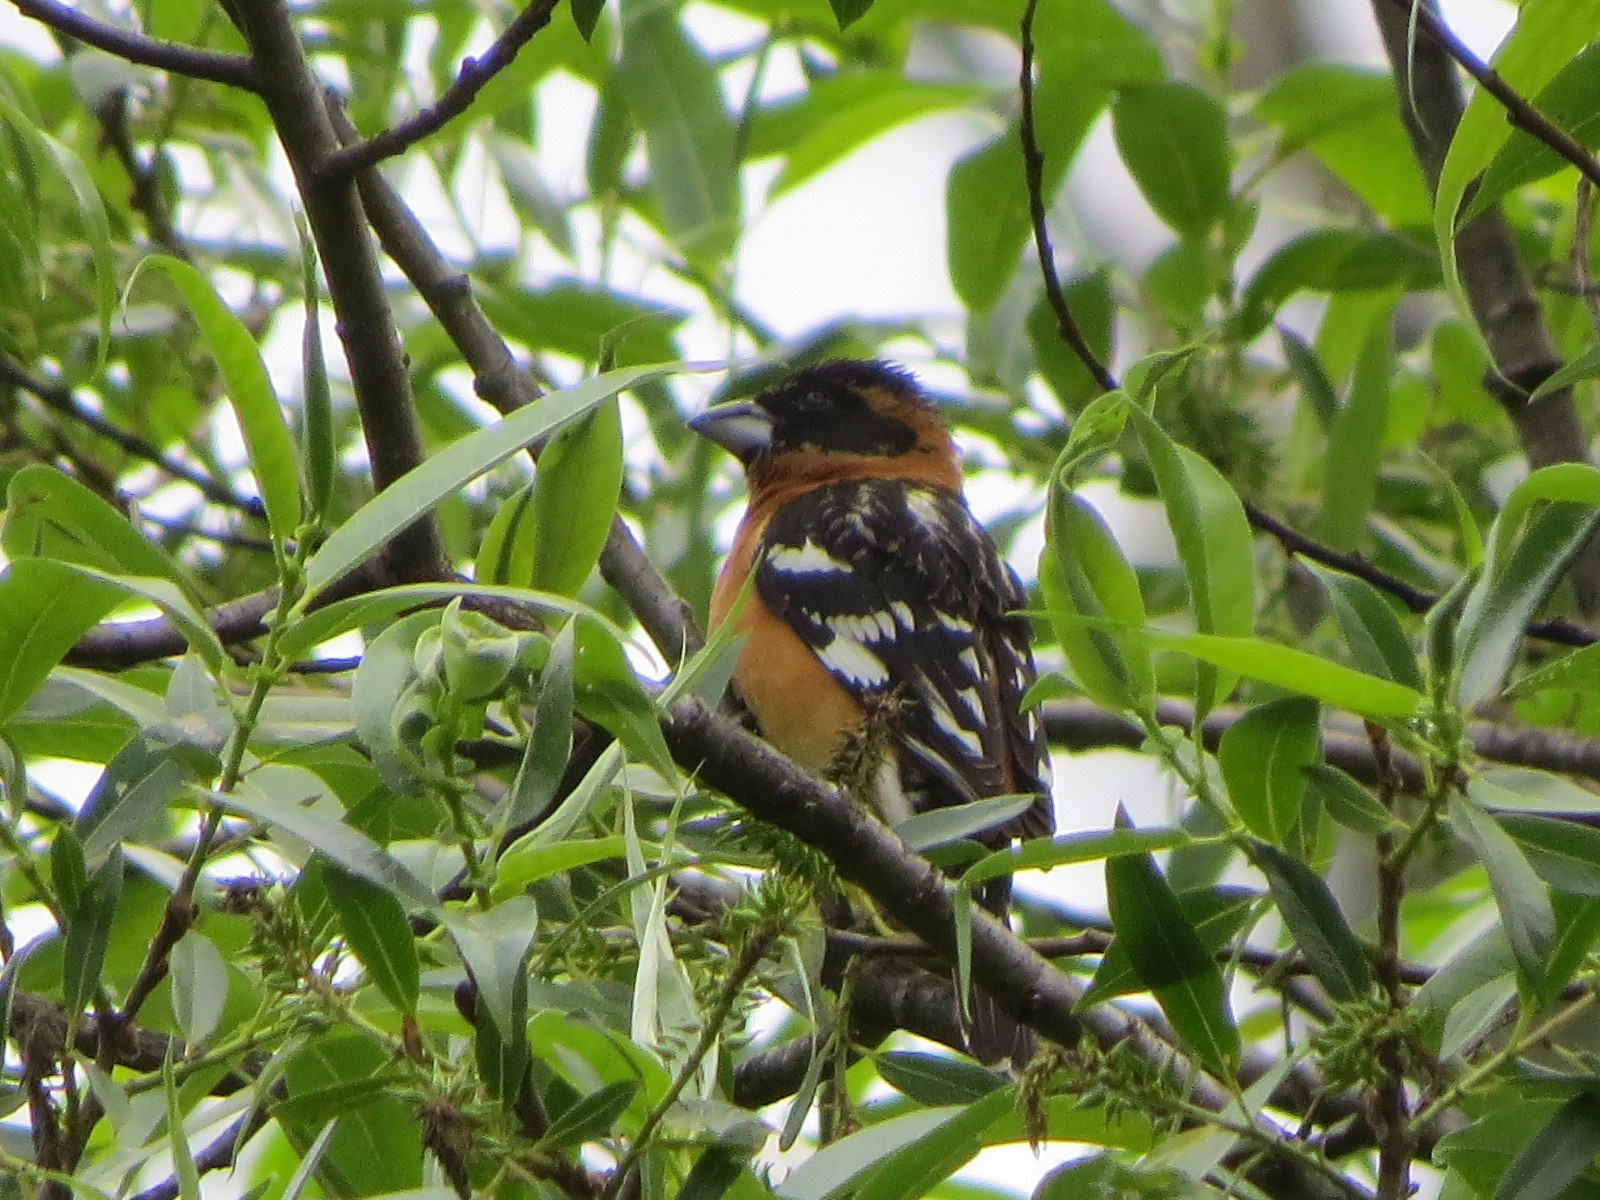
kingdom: Animalia
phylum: Chordata
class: Aves
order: Passeriformes
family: Cardinalidae
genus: Pheucticus
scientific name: Pheucticus melanocephalus
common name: Black-headed grosbeak
